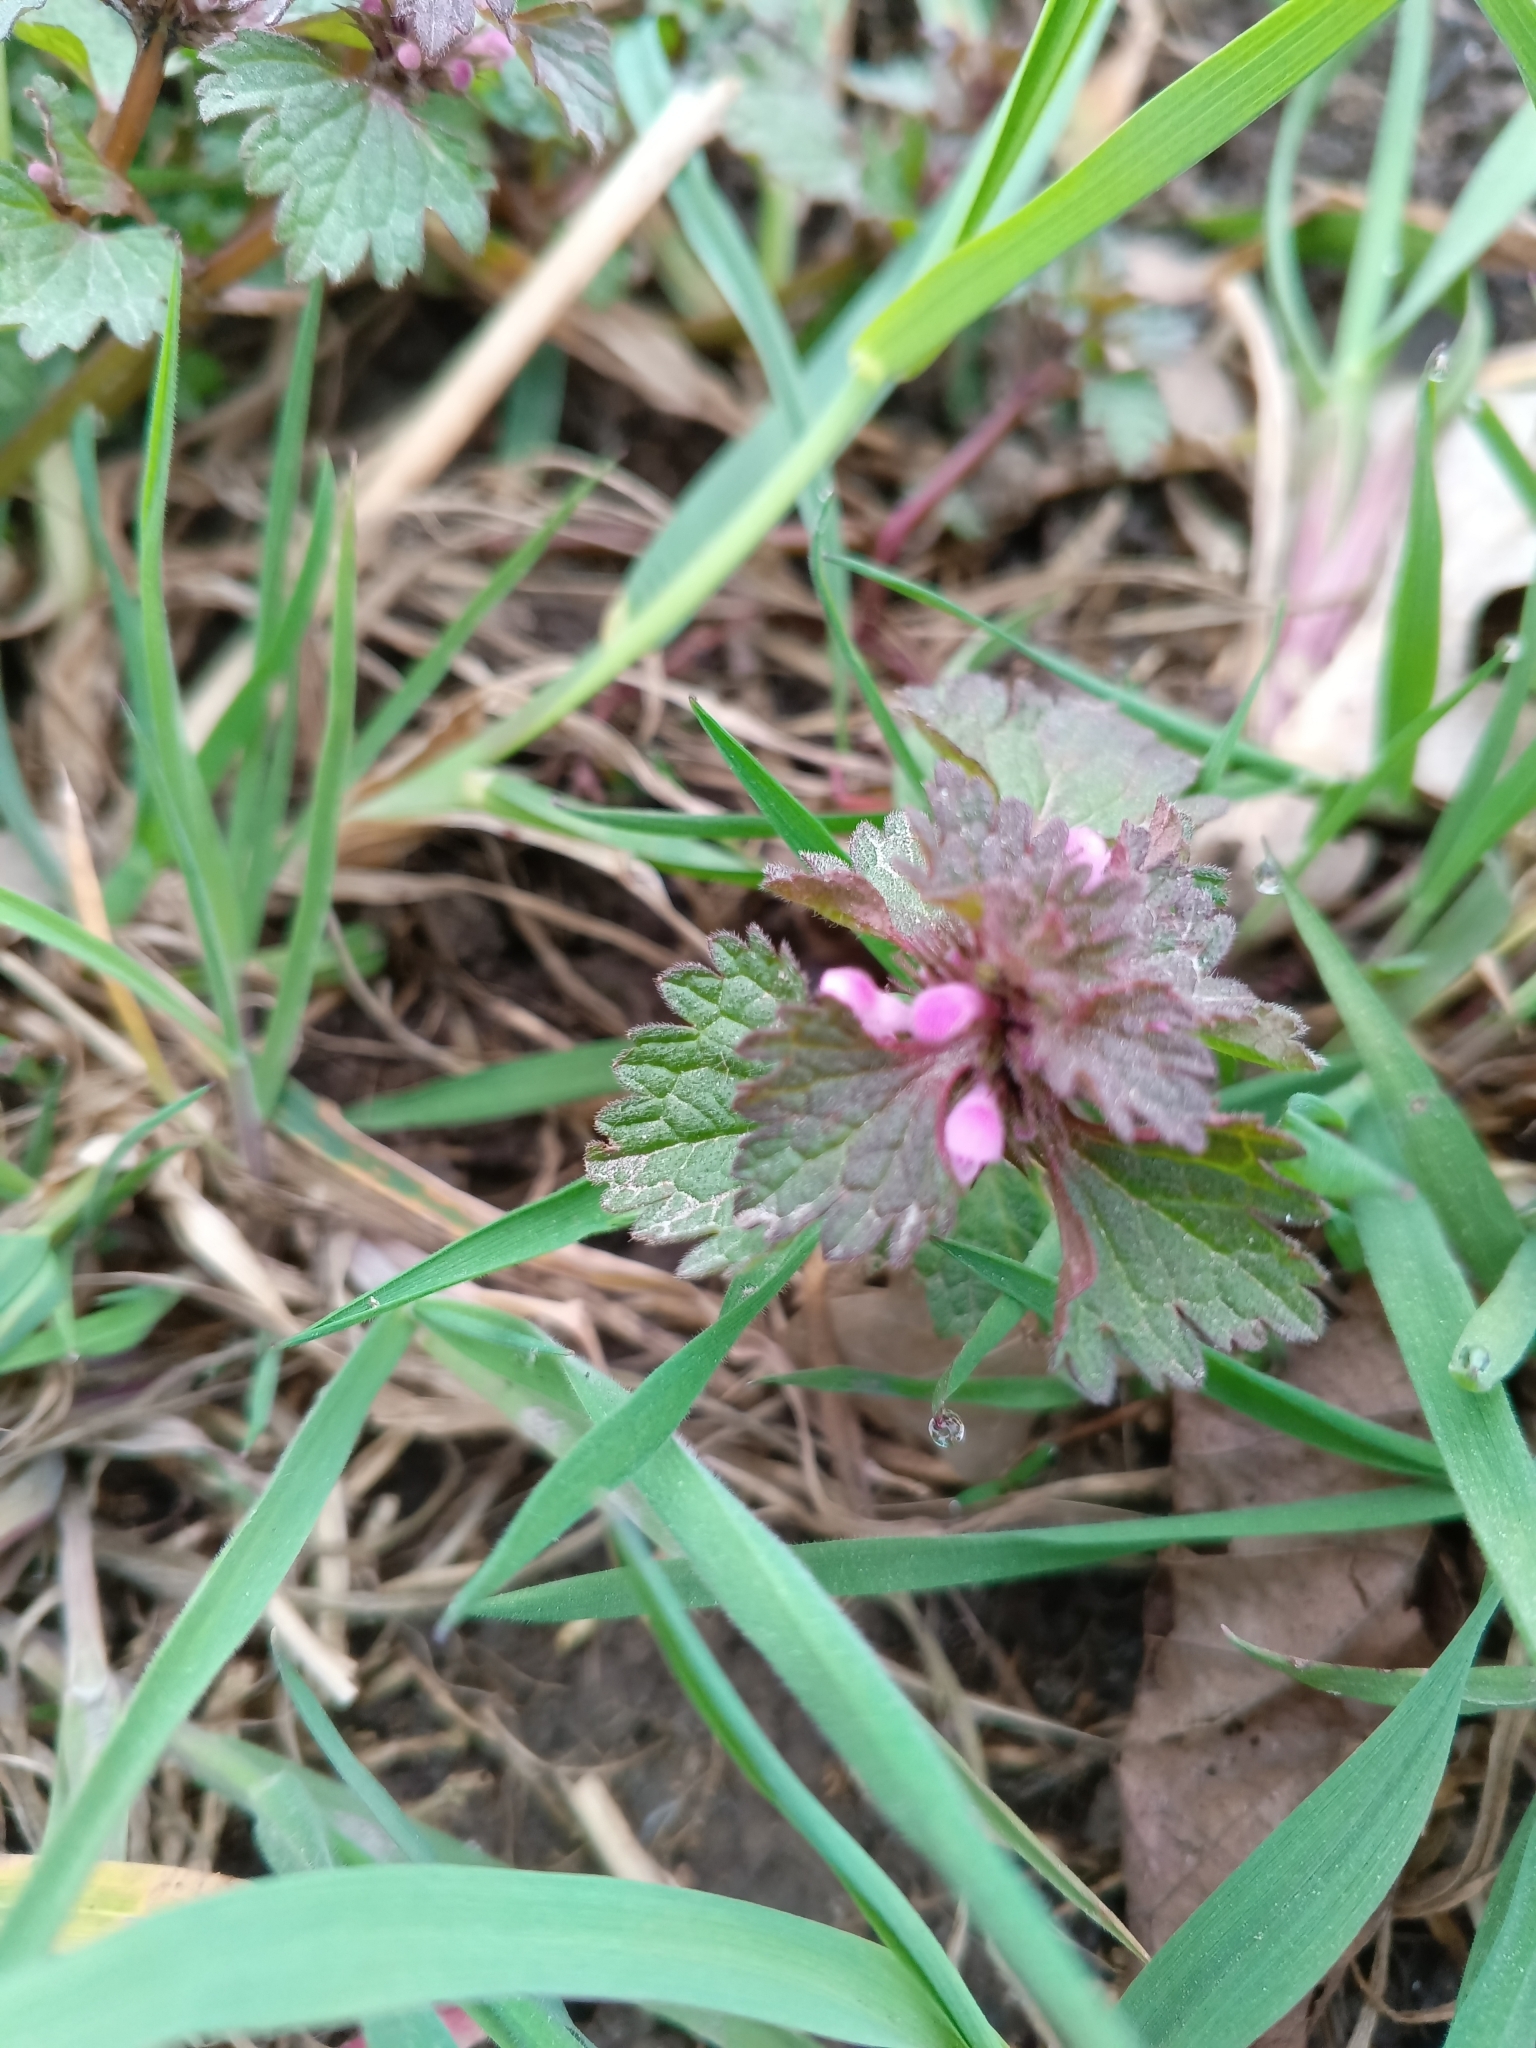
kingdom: Plantae
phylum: Tracheophyta
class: Magnoliopsida
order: Lamiales
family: Lamiaceae
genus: Lamium
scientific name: Lamium hybridum
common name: Cut-leaved dead-nettle
